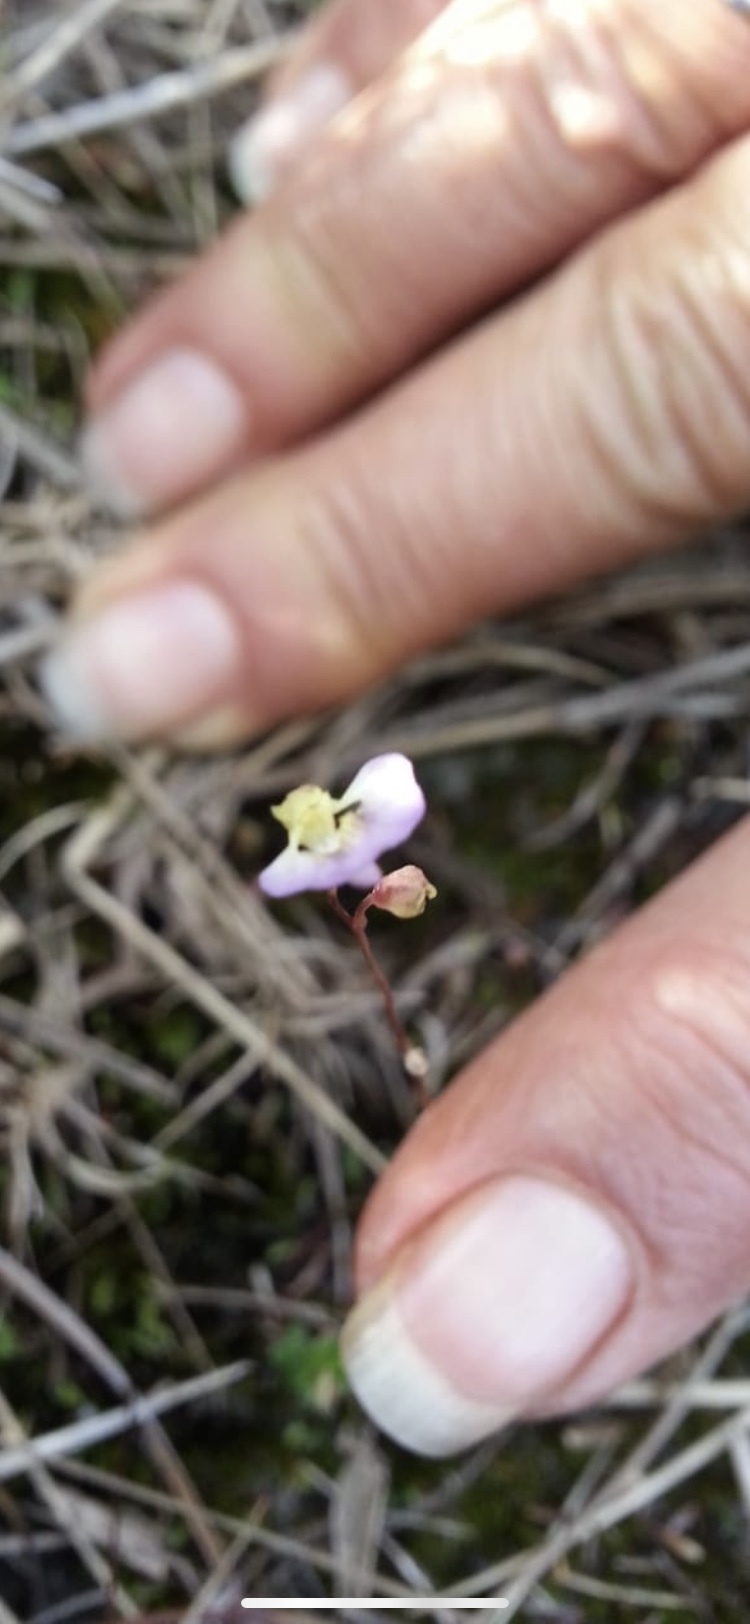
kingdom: Plantae
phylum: Tracheophyta
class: Magnoliopsida
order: Lamiales
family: Lentibulariaceae
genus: Utricularia
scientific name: Utricularia bisquamata
